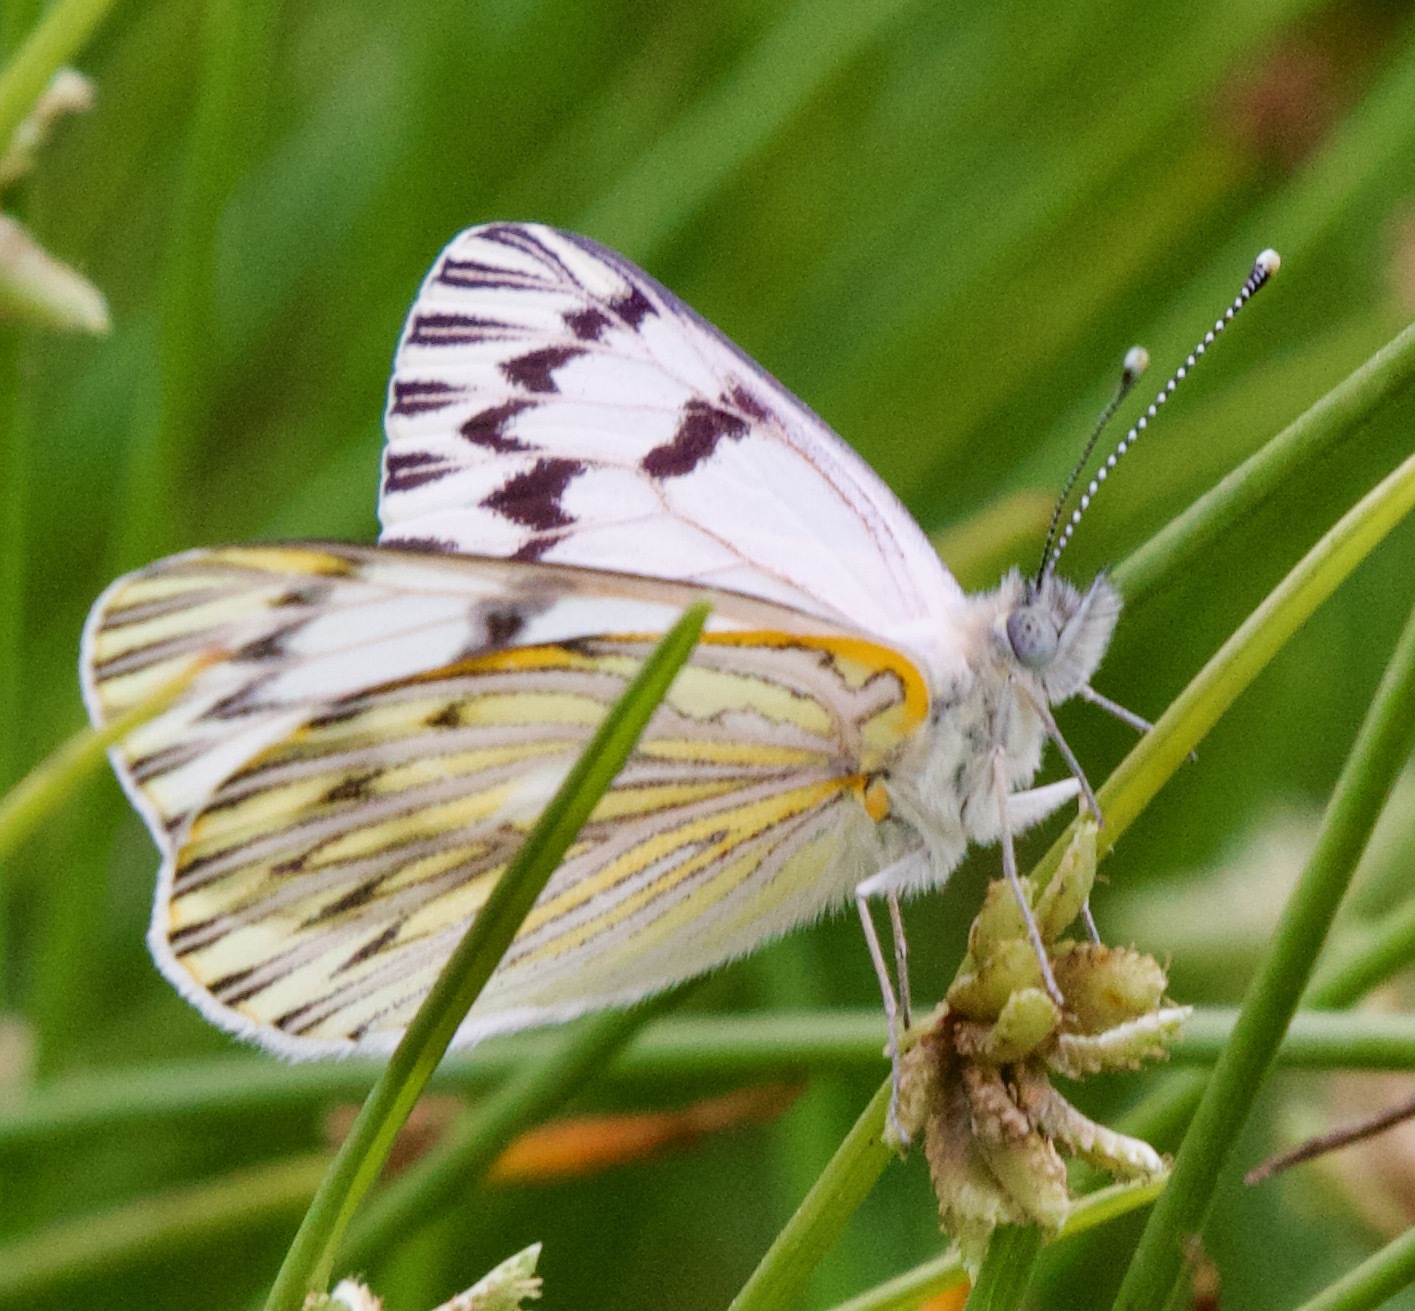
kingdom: Animalia
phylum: Arthropoda
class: Insecta
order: Lepidoptera
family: Pieridae
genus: Tatochila
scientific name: Tatochila mercedis
